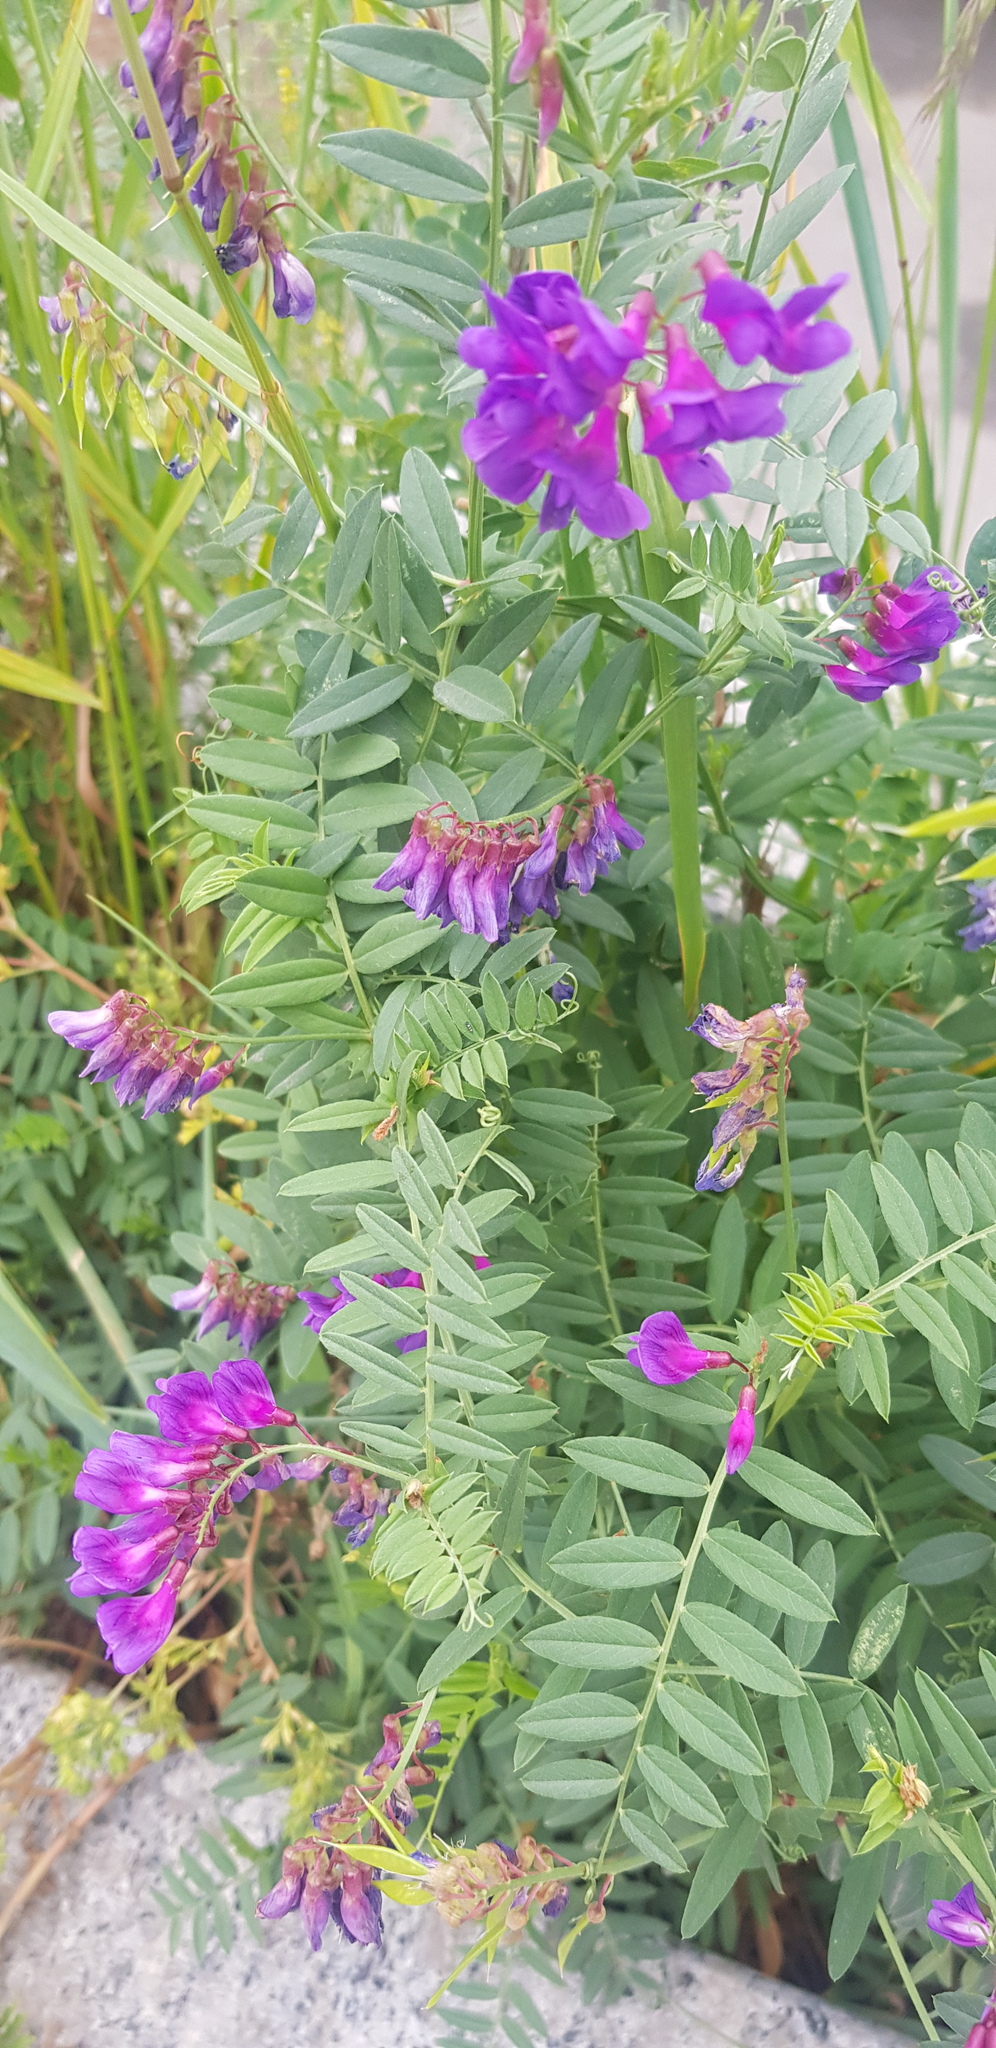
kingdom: Plantae
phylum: Tracheophyta
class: Magnoliopsida
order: Fabales
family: Fabaceae
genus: Vicia
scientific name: Vicia amoena
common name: Cheder ebs
